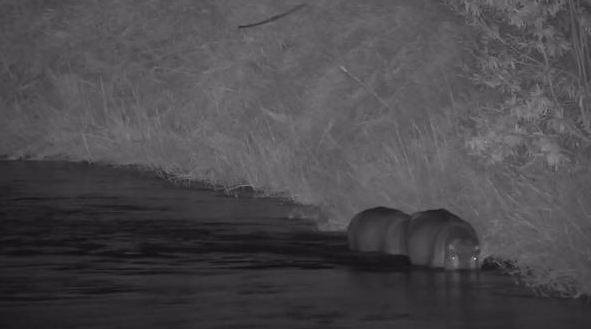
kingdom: Animalia
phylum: Chordata
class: Mammalia
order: Artiodactyla
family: Hippopotamidae
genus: Hippopotamus
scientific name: Hippopotamus amphibius
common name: Common hippopotamus
